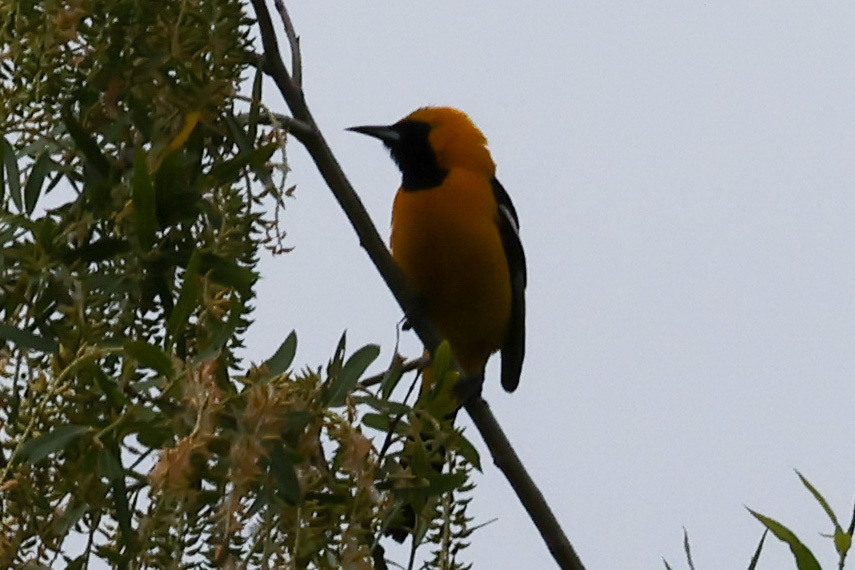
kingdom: Animalia
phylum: Chordata
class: Aves
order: Passeriformes
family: Icteridae
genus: Icterus
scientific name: Icterus cucullatus
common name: Hooded oriole
